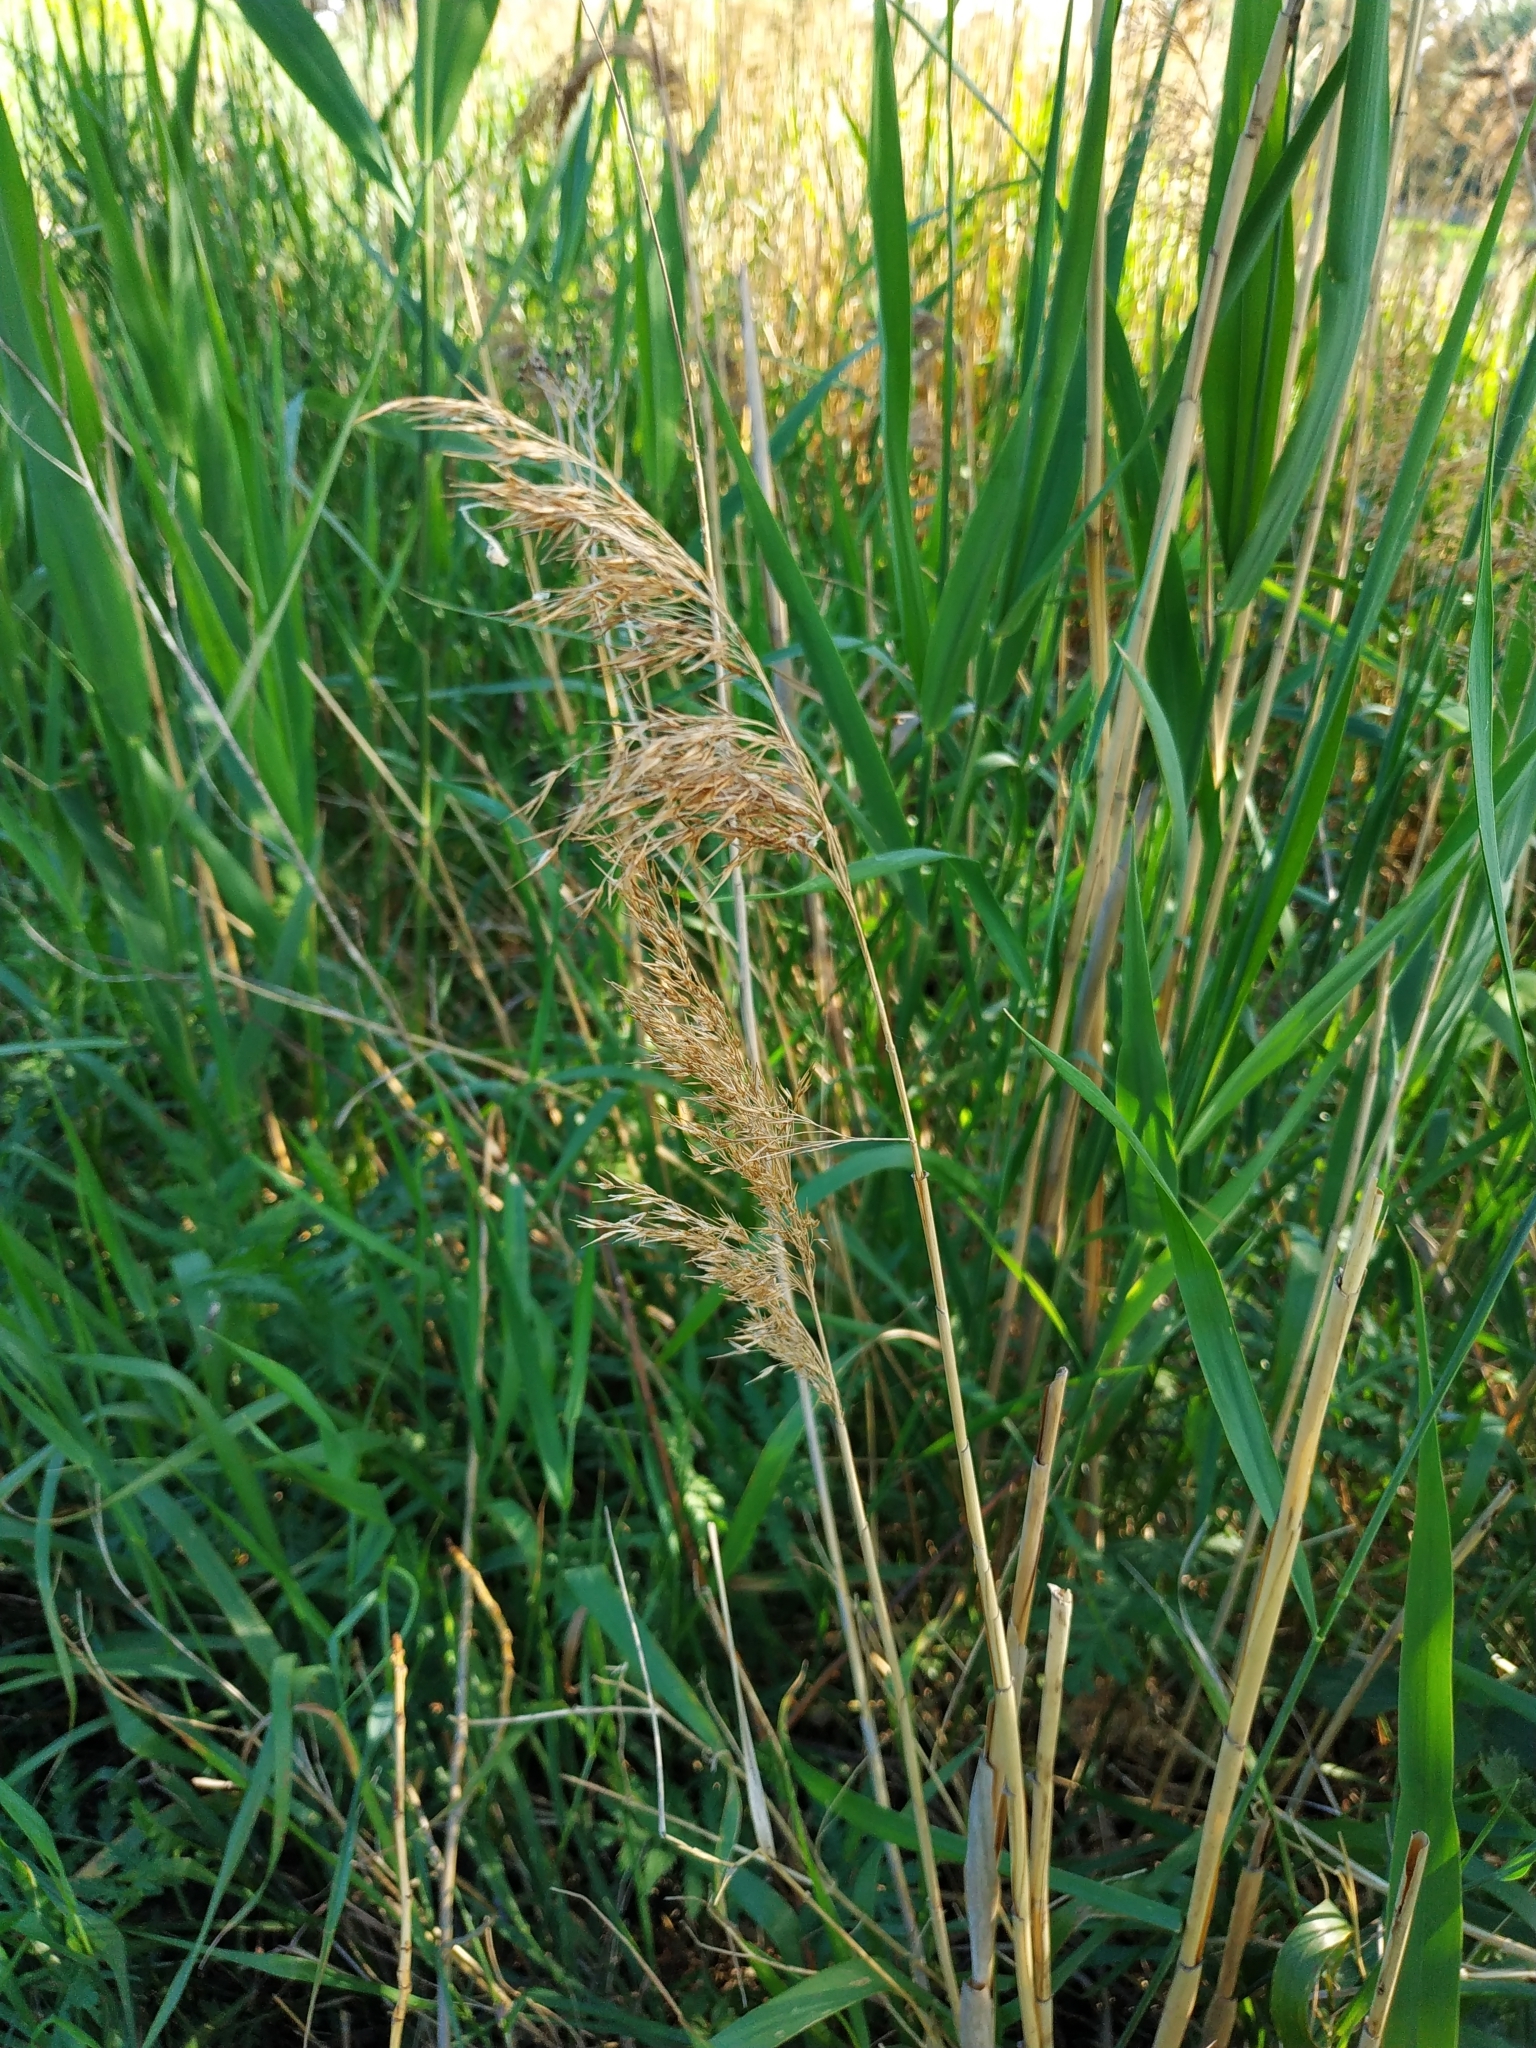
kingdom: Plantae
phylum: Tracheophyta
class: Liliopsida
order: Poales
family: Poaceae
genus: Phragmites
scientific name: Phragmites australis
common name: Common reed
